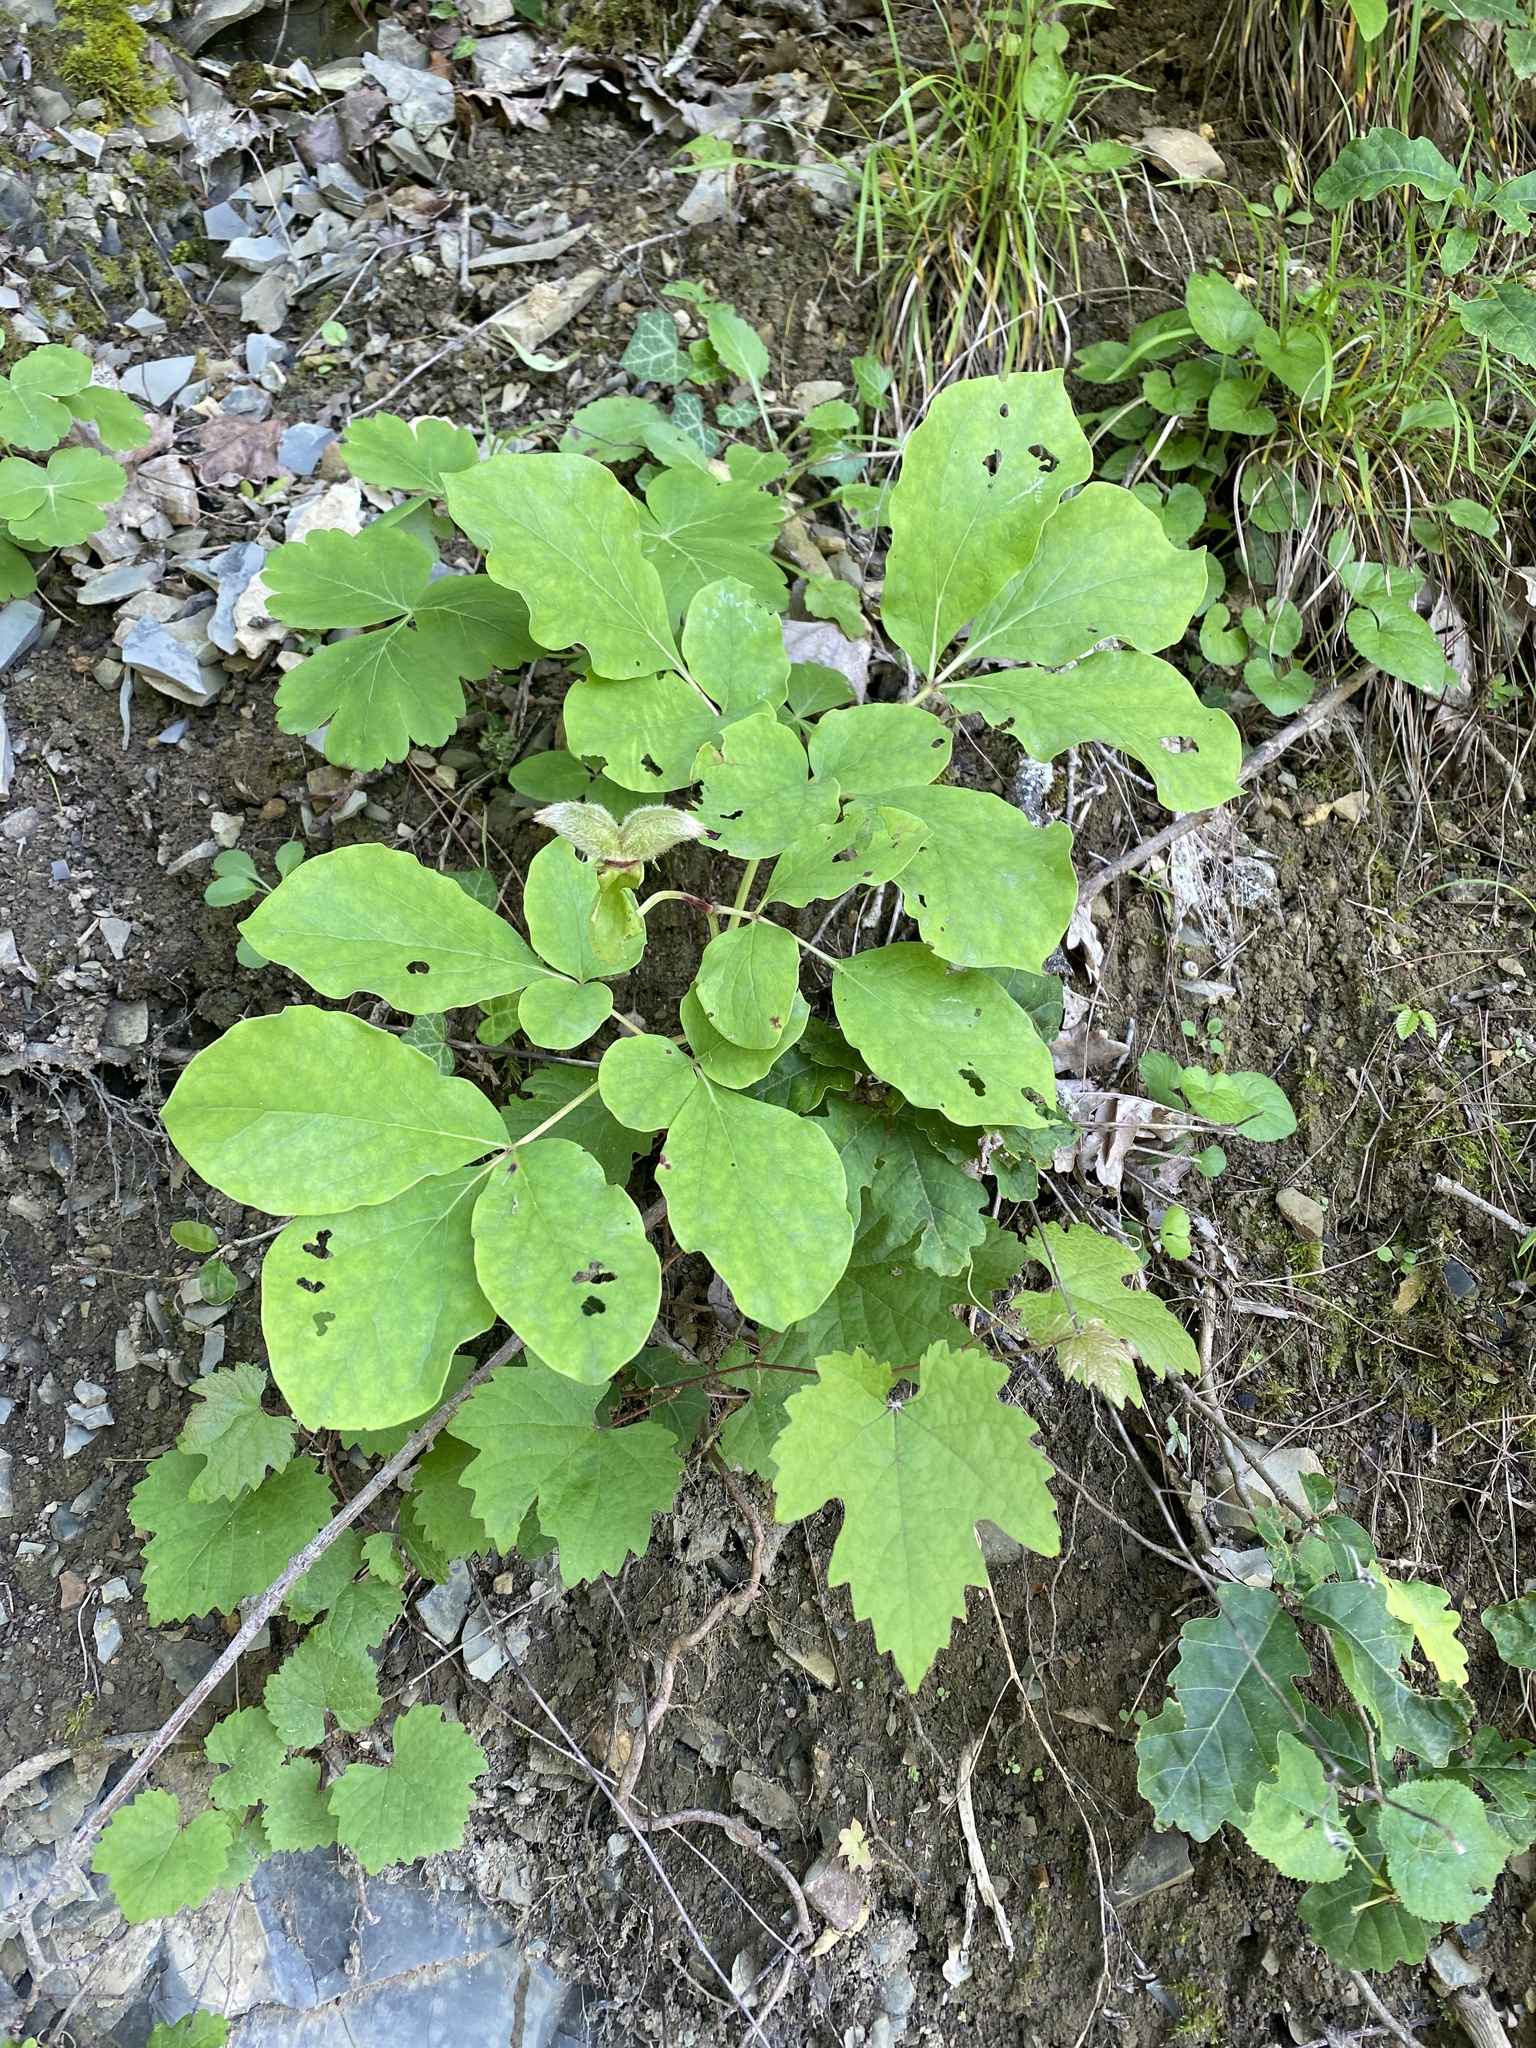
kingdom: Plantae
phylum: Tracheophyta
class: Magnoliopsida
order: Saxifragales
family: Paeoniaceae
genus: Paeonia
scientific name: Paeonia caucasica
